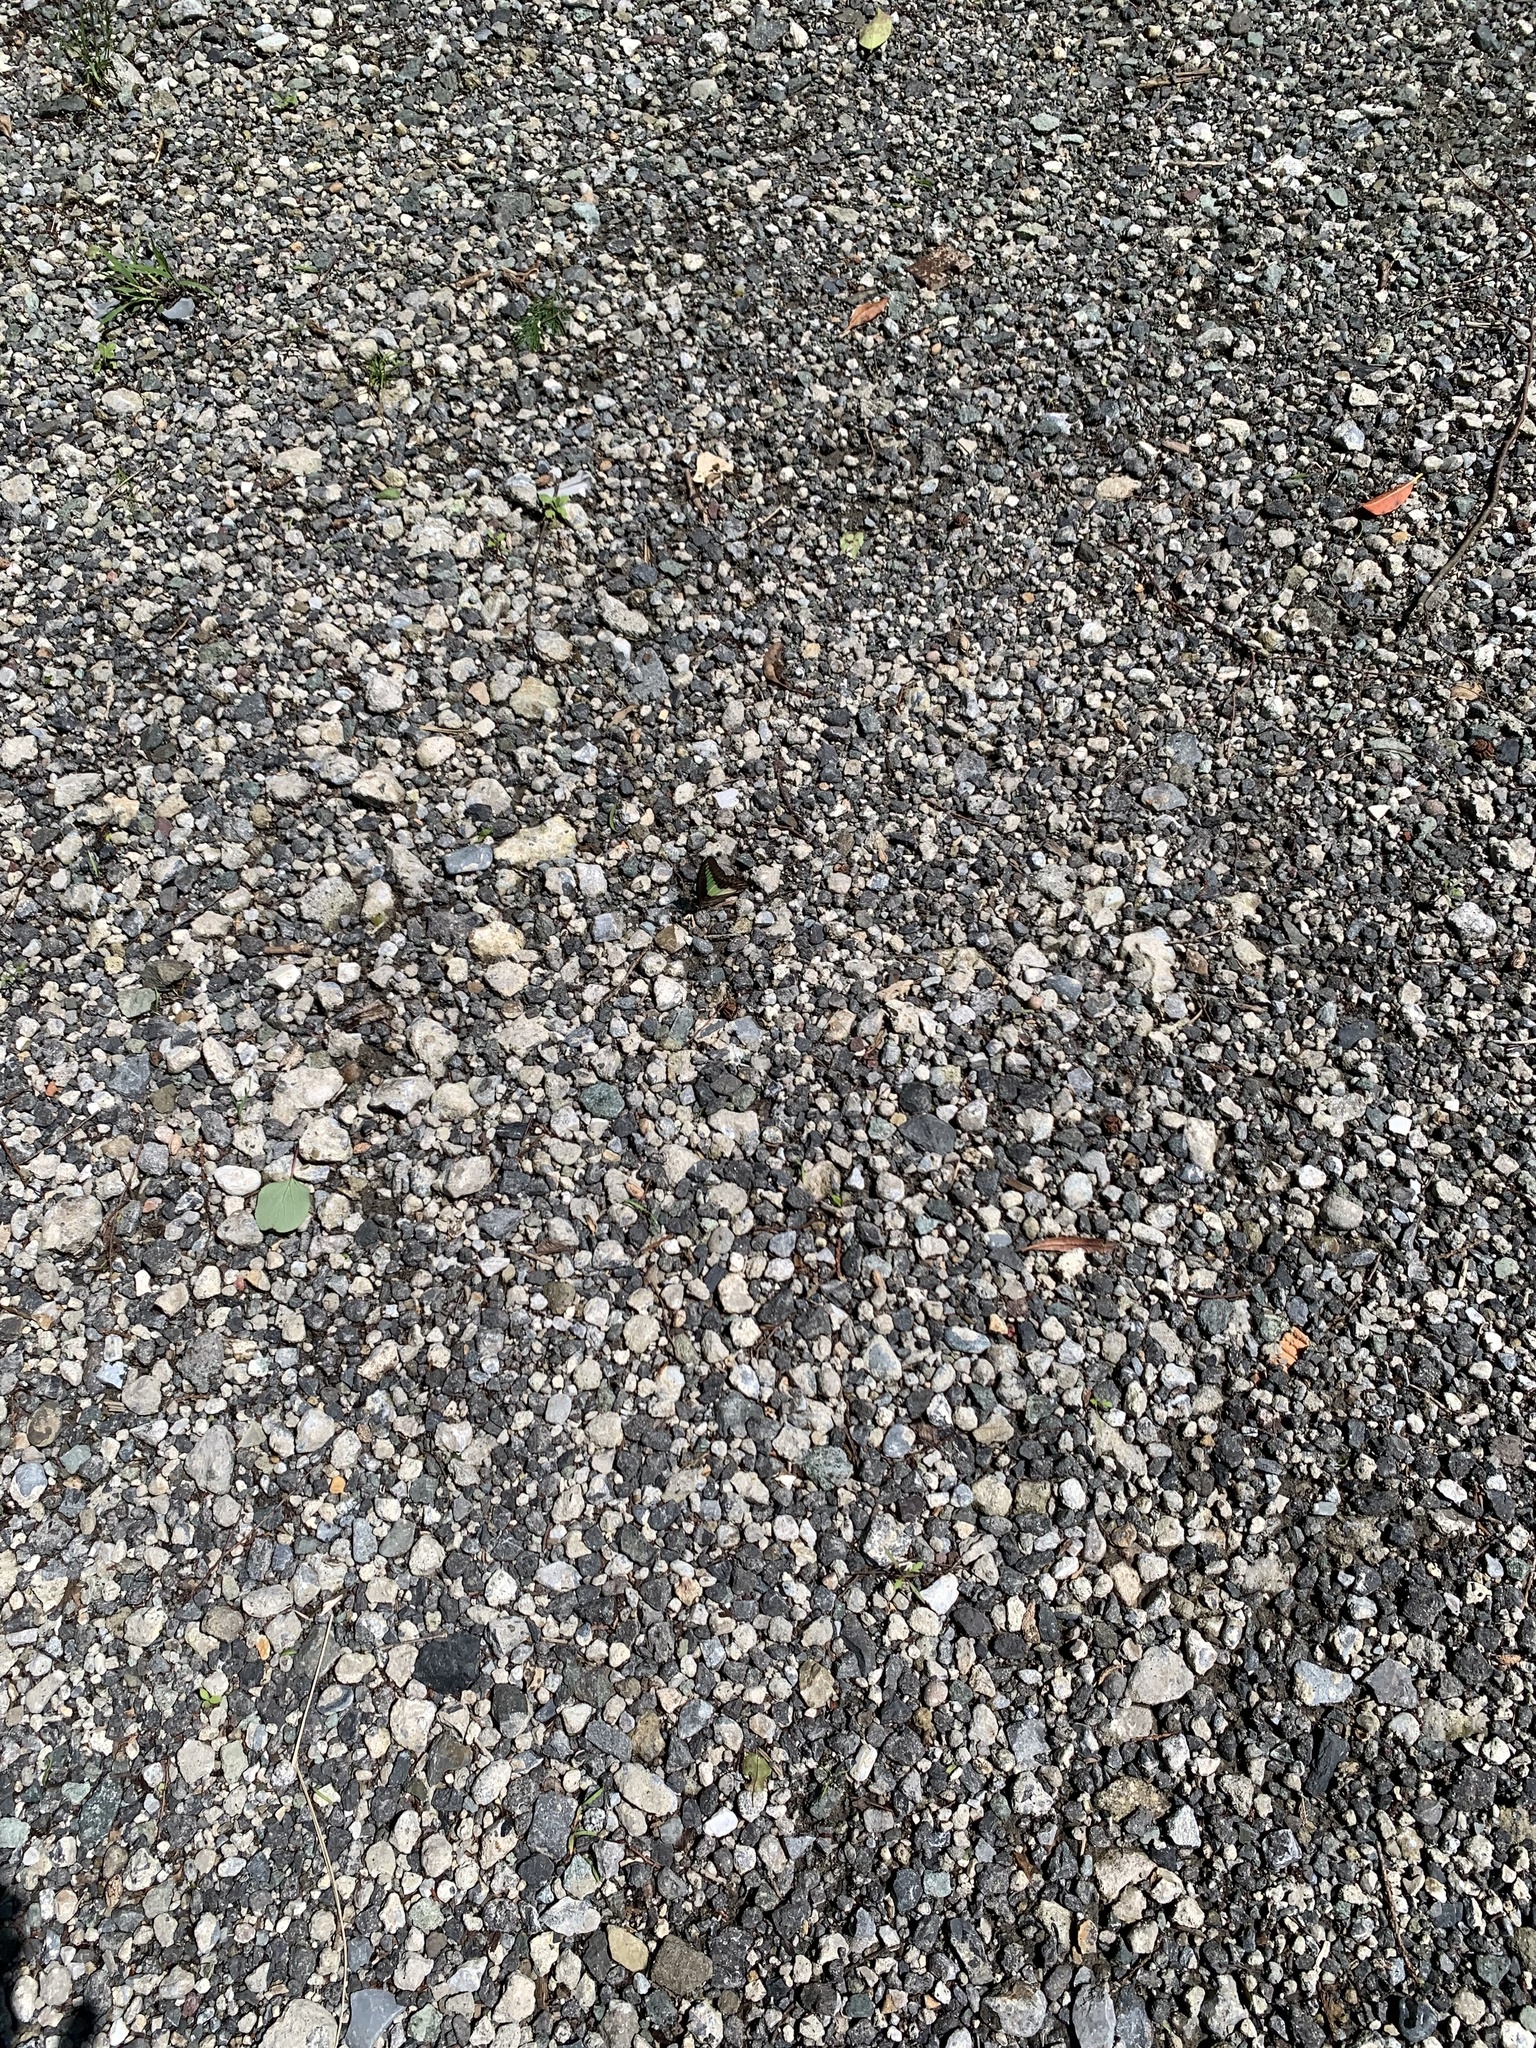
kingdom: Fungi
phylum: Ascomycota
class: Sordariomycetes
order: Microascales
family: Microascaceae
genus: Graphium
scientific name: Graphium sarpedon
